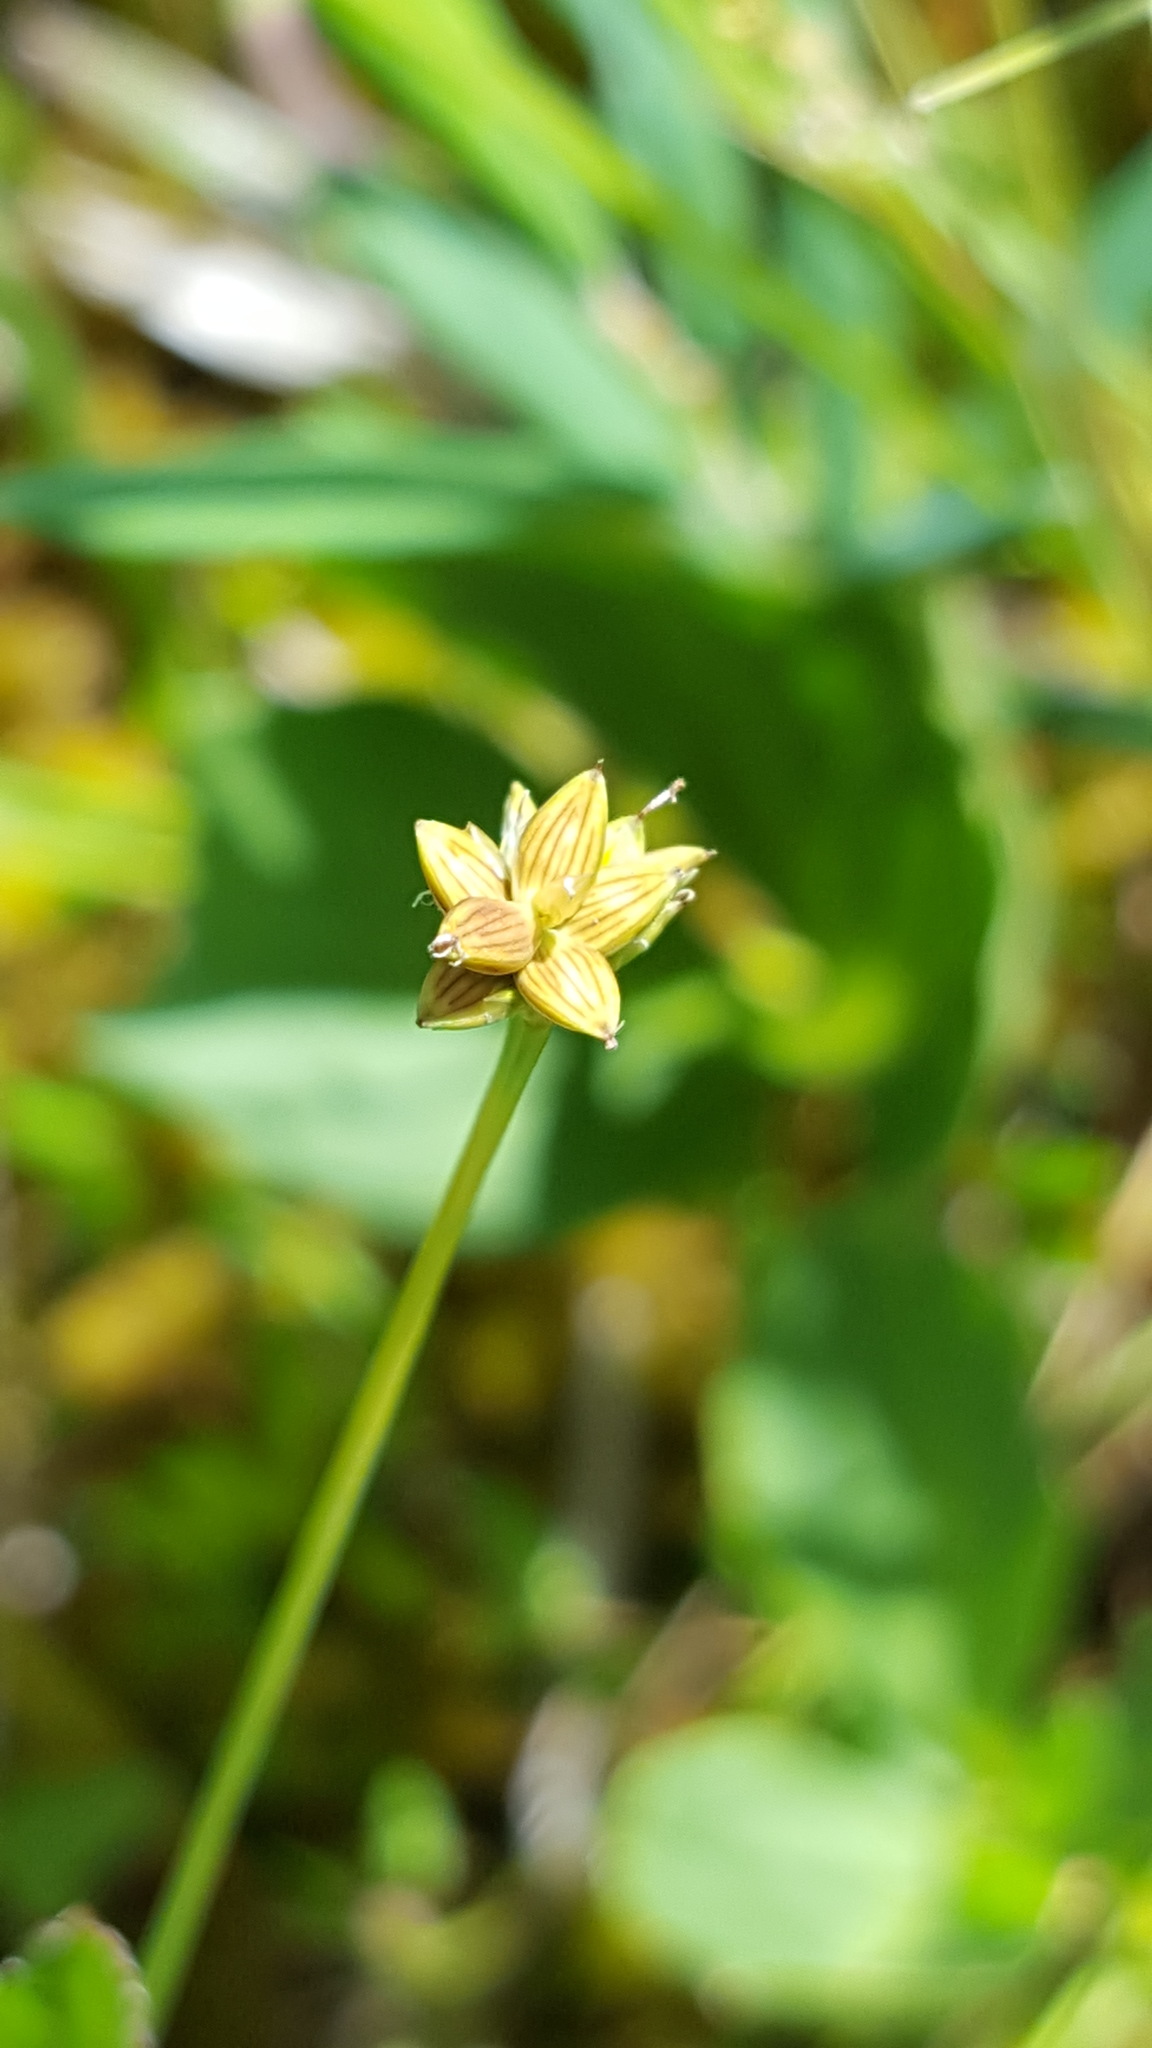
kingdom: Plantae
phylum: Tracheophyta
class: Liliopsida
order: Poales
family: Cyperaceae
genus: Carex
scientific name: Carex tenuiflora
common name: Sparse-flowered sedge
